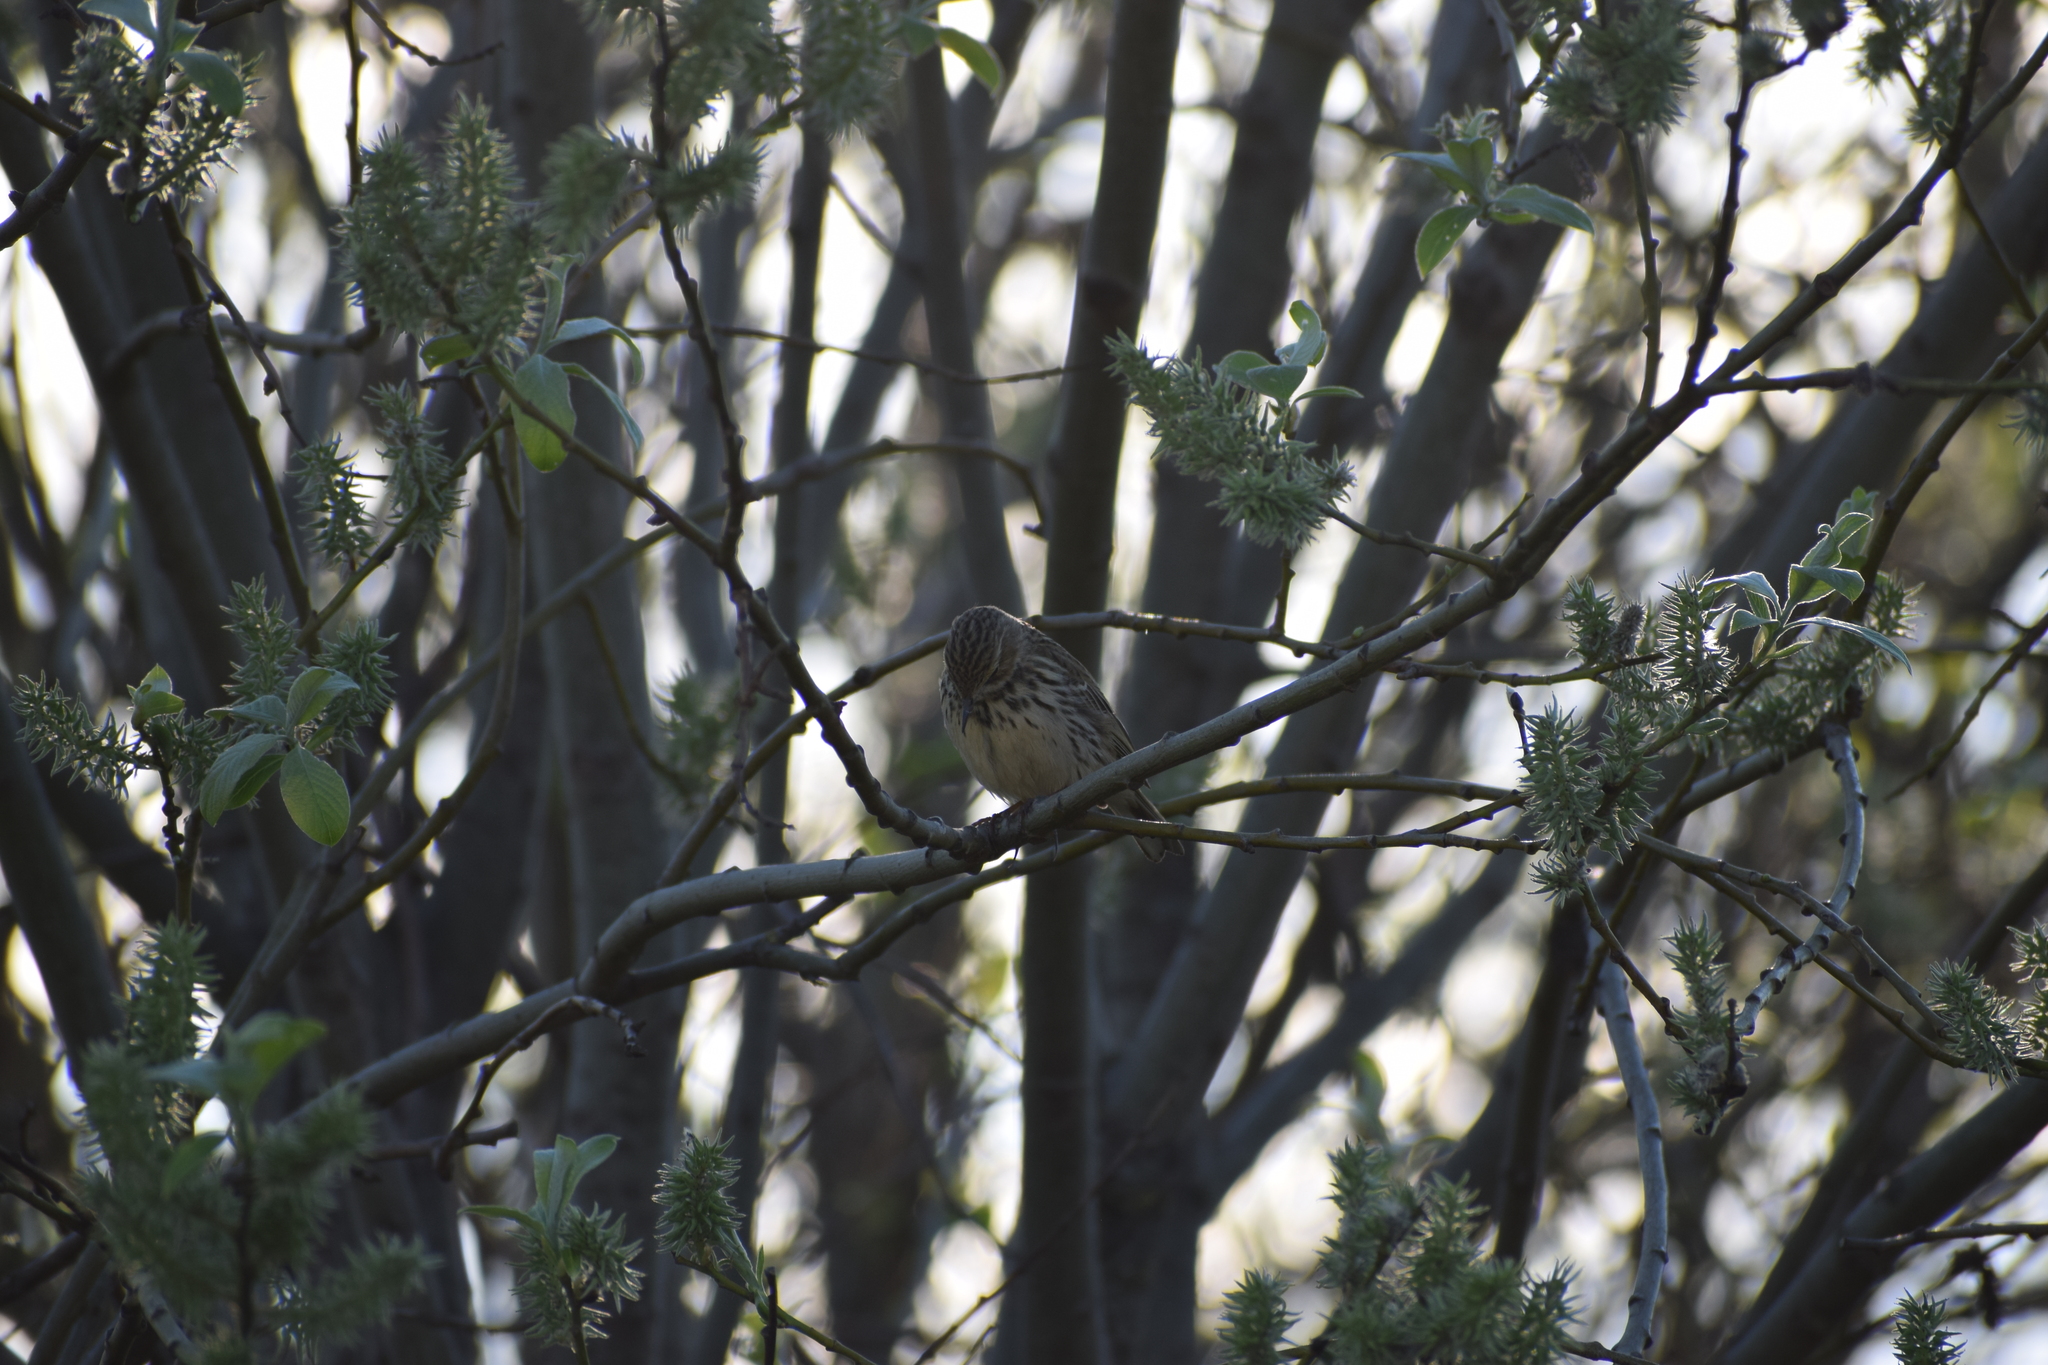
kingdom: Animalia
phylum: Chordata
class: Aves
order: Passeriformes
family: Motacillidae
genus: Anthus
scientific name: Anthus pratensis
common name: Meadow pipit
